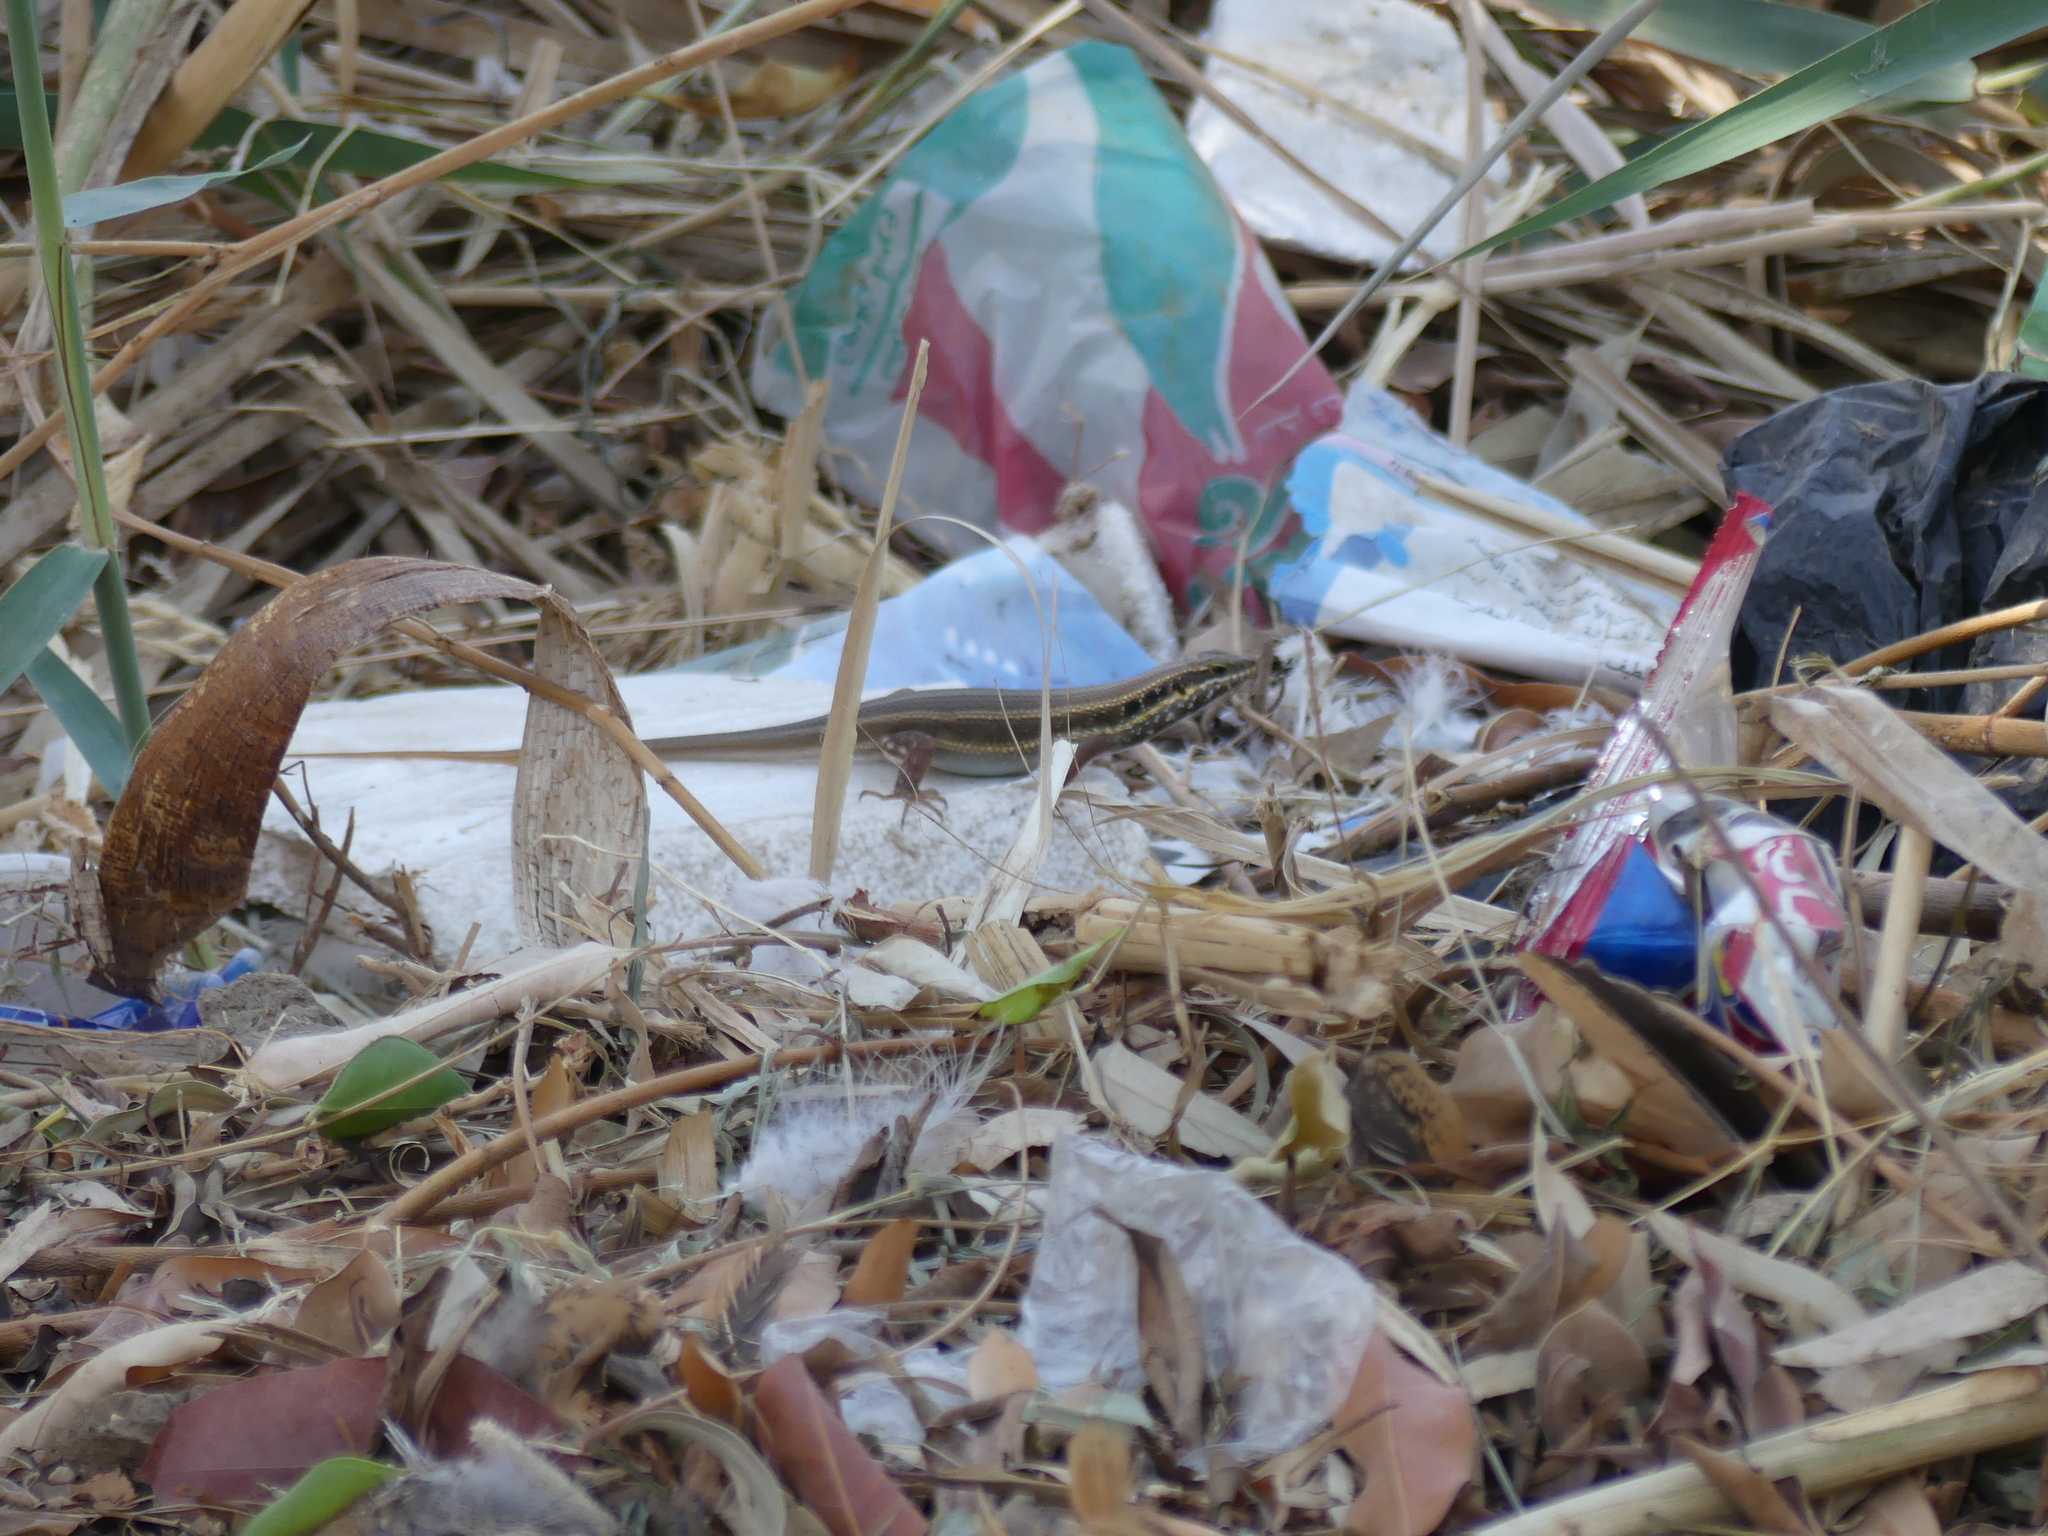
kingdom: Animalia
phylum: Chordata
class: Squamata
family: Scincidae
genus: Trachylepis
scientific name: Trachylepis quinquetaeniata
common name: African five-lined skink
